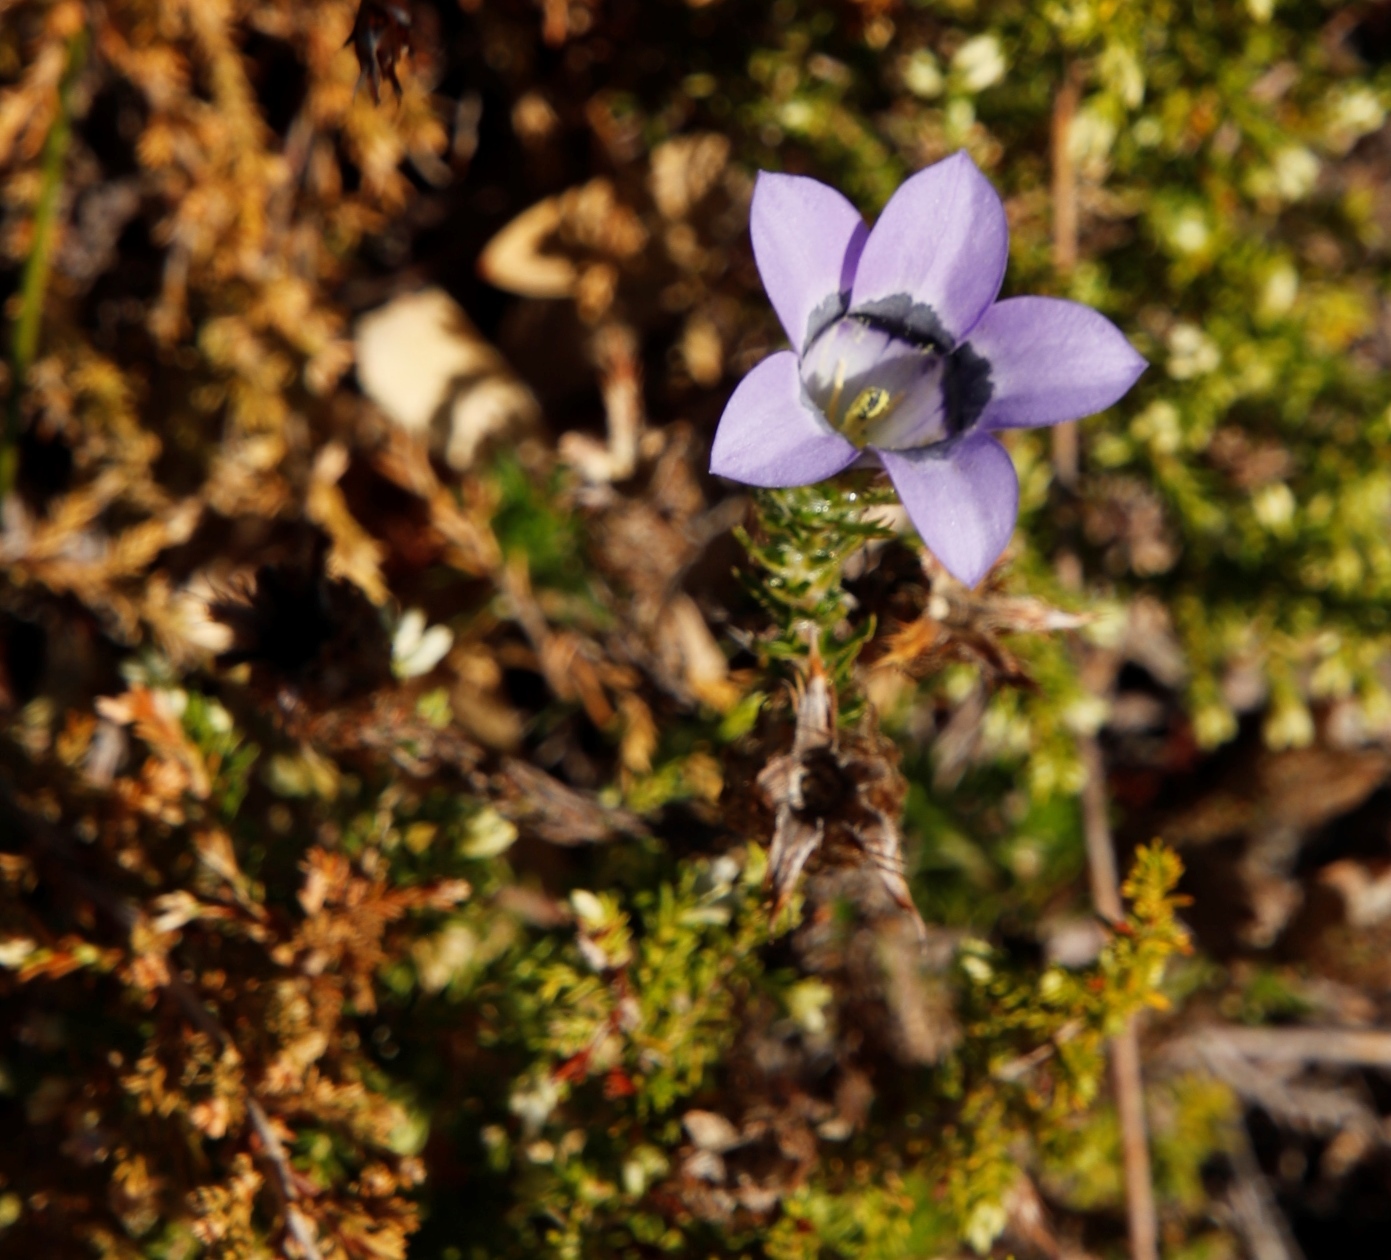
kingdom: Plantae
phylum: Tracheophyta
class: Magnoliopsida
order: Asterales
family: Campanulaceae
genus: Roella
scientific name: Roella ciliata
